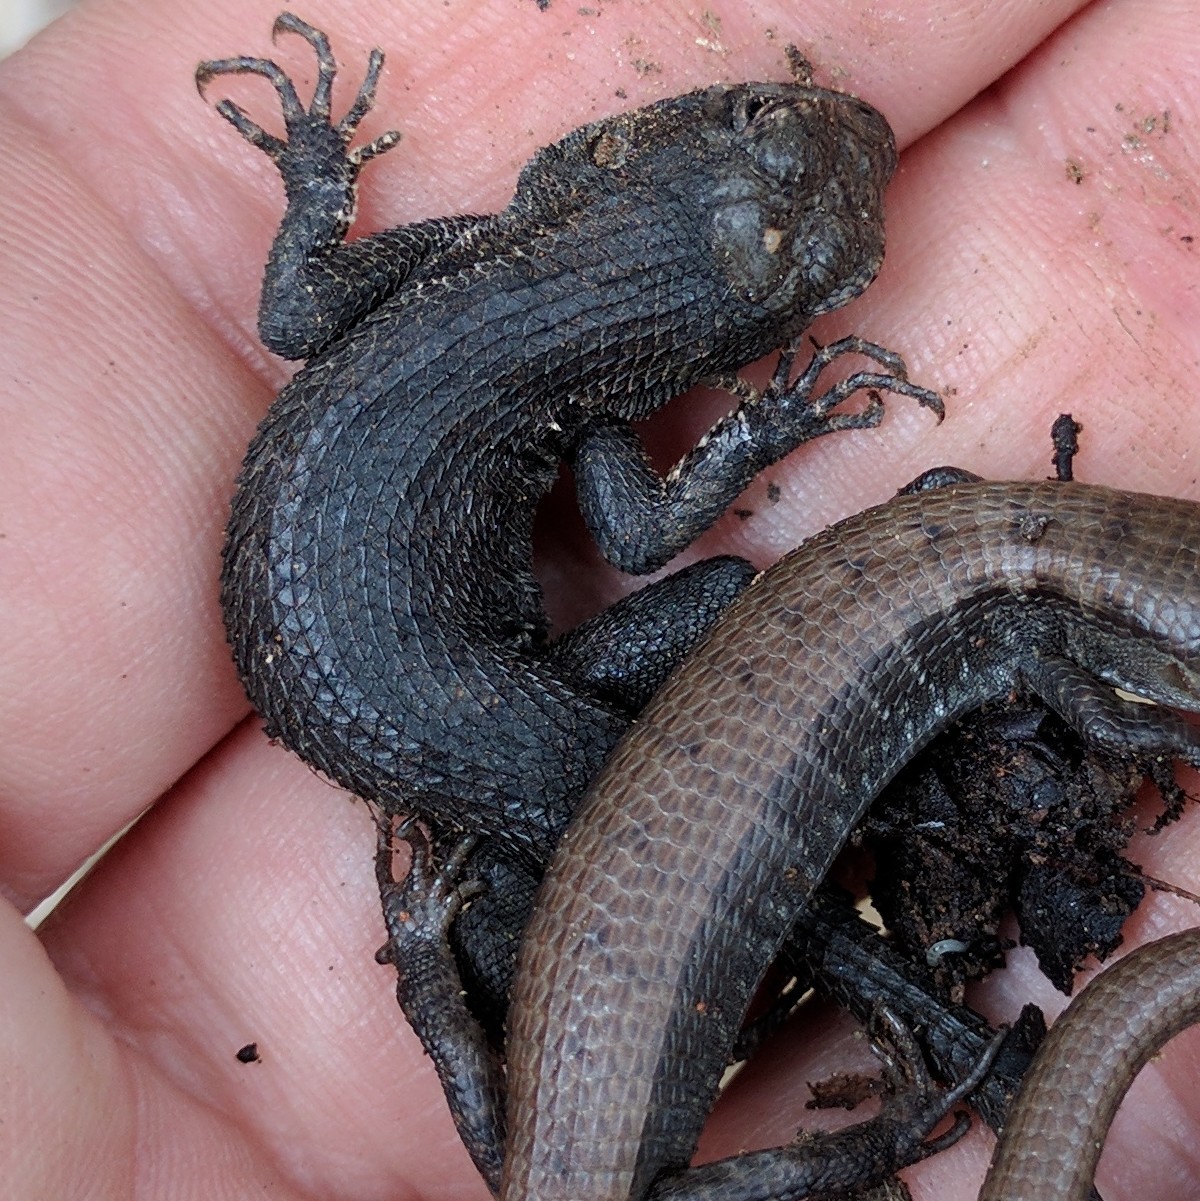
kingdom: Animalia
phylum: Chordata
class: Squamata
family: Phrynosomatidae
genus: Sceloporus
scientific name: Sceloporus occidentalis
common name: Western fence lizard
